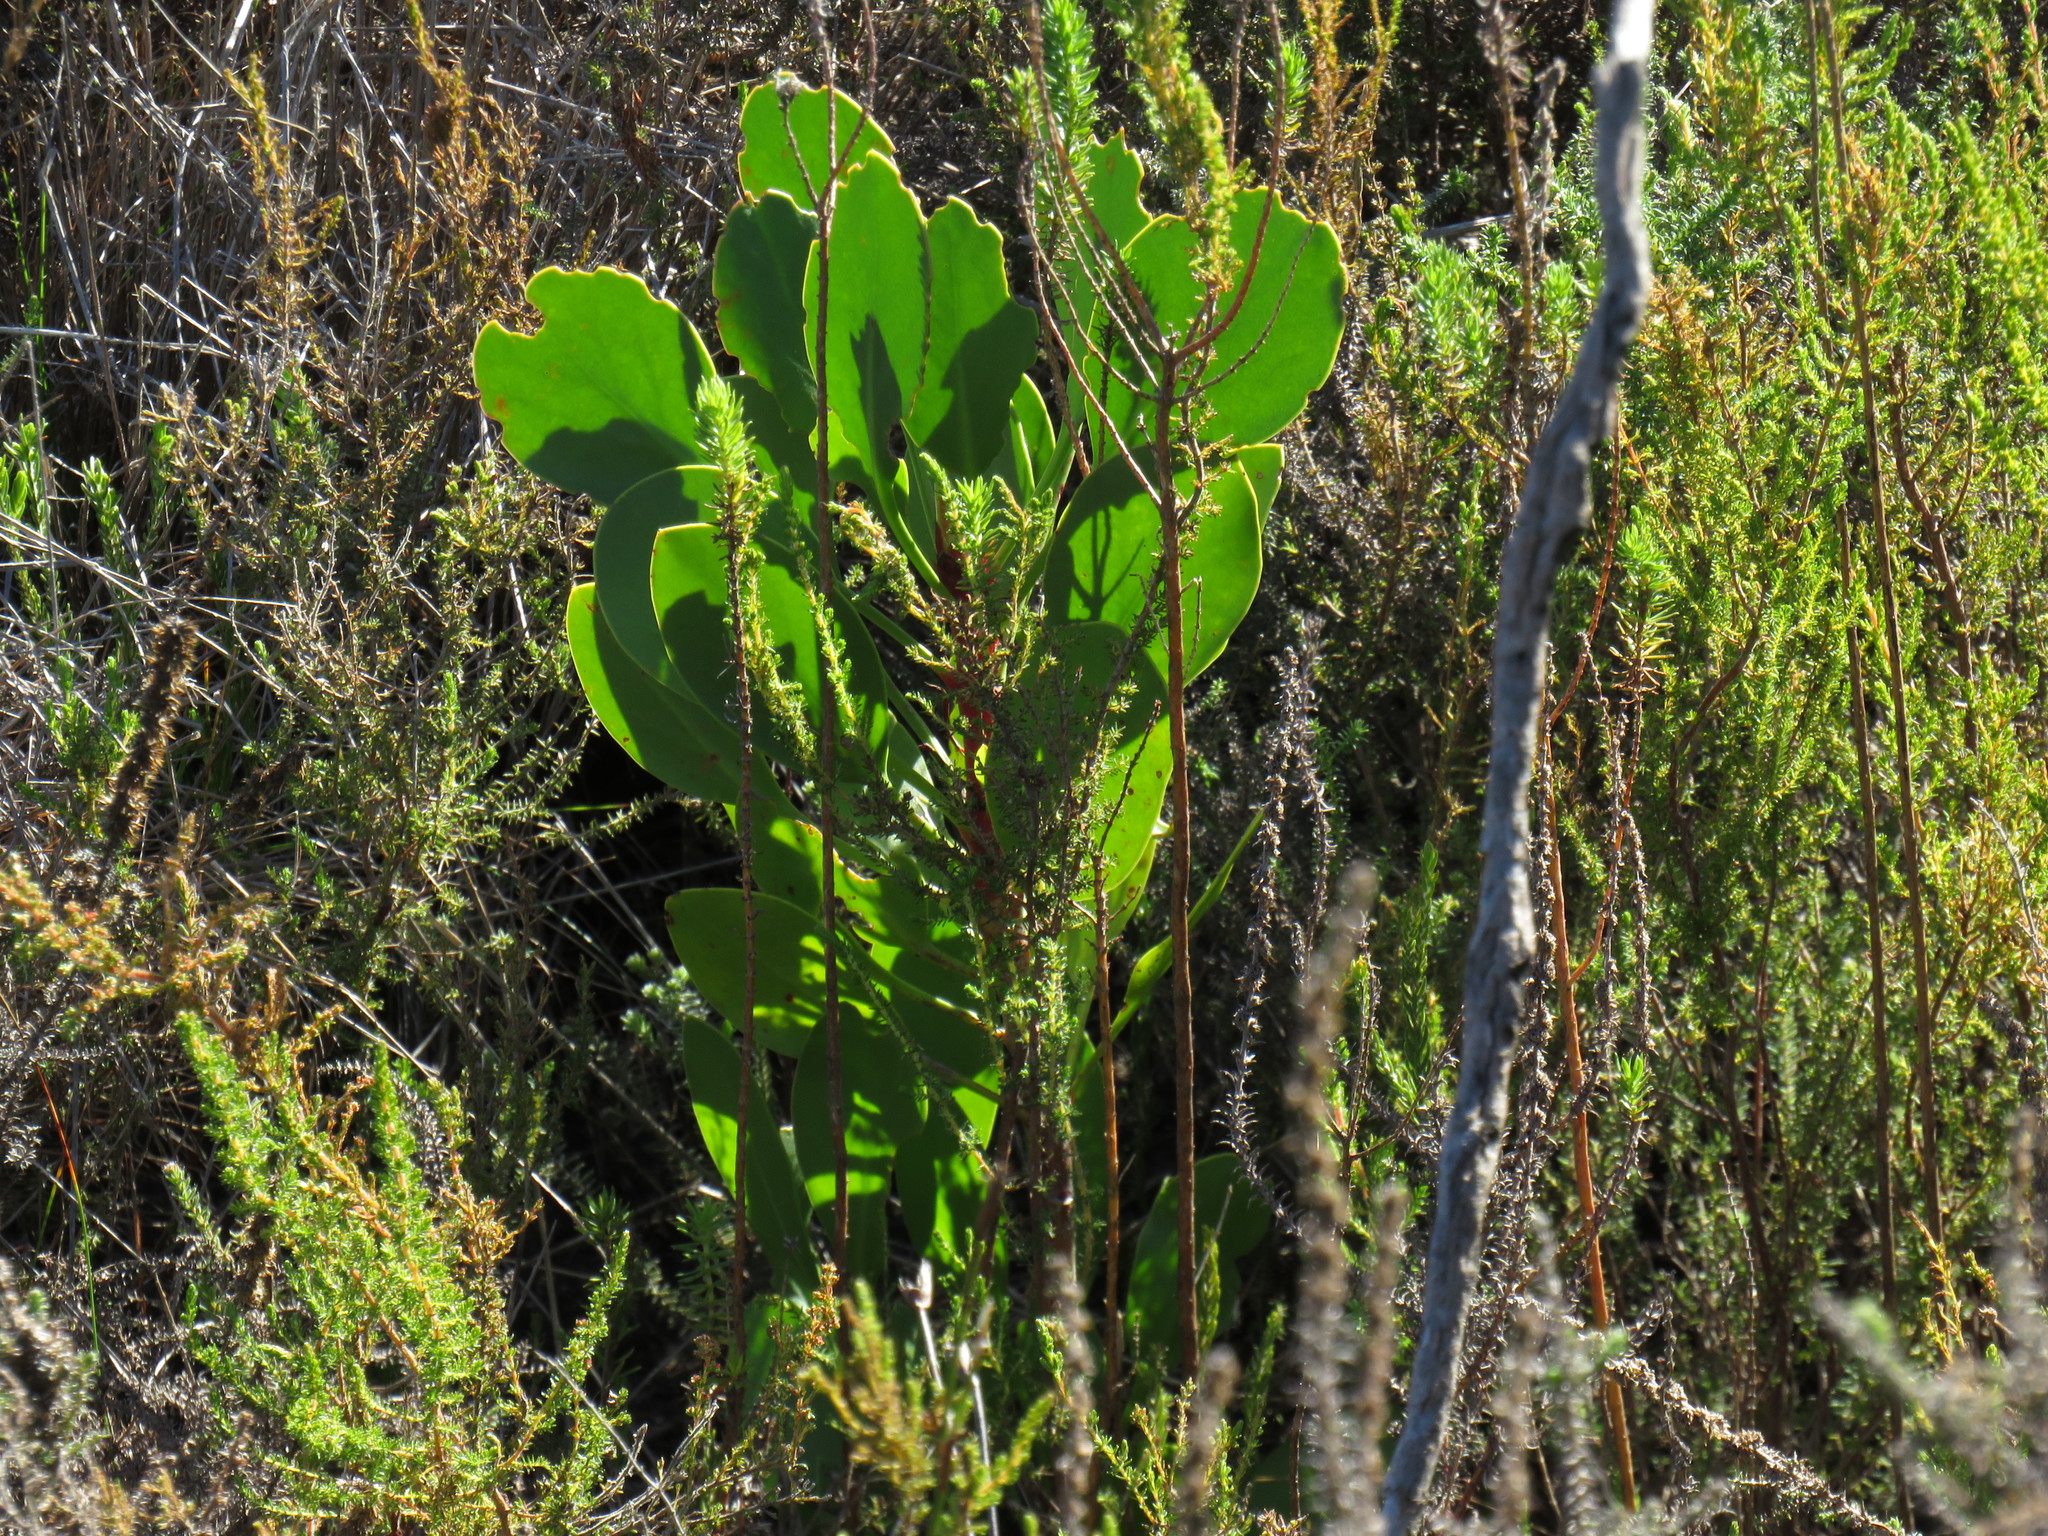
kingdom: Plantae
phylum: Tracheophyta
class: Magnoliopsida
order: Proteales
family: Proteaceae
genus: Protea
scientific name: Protea cynaroides
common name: King protea
